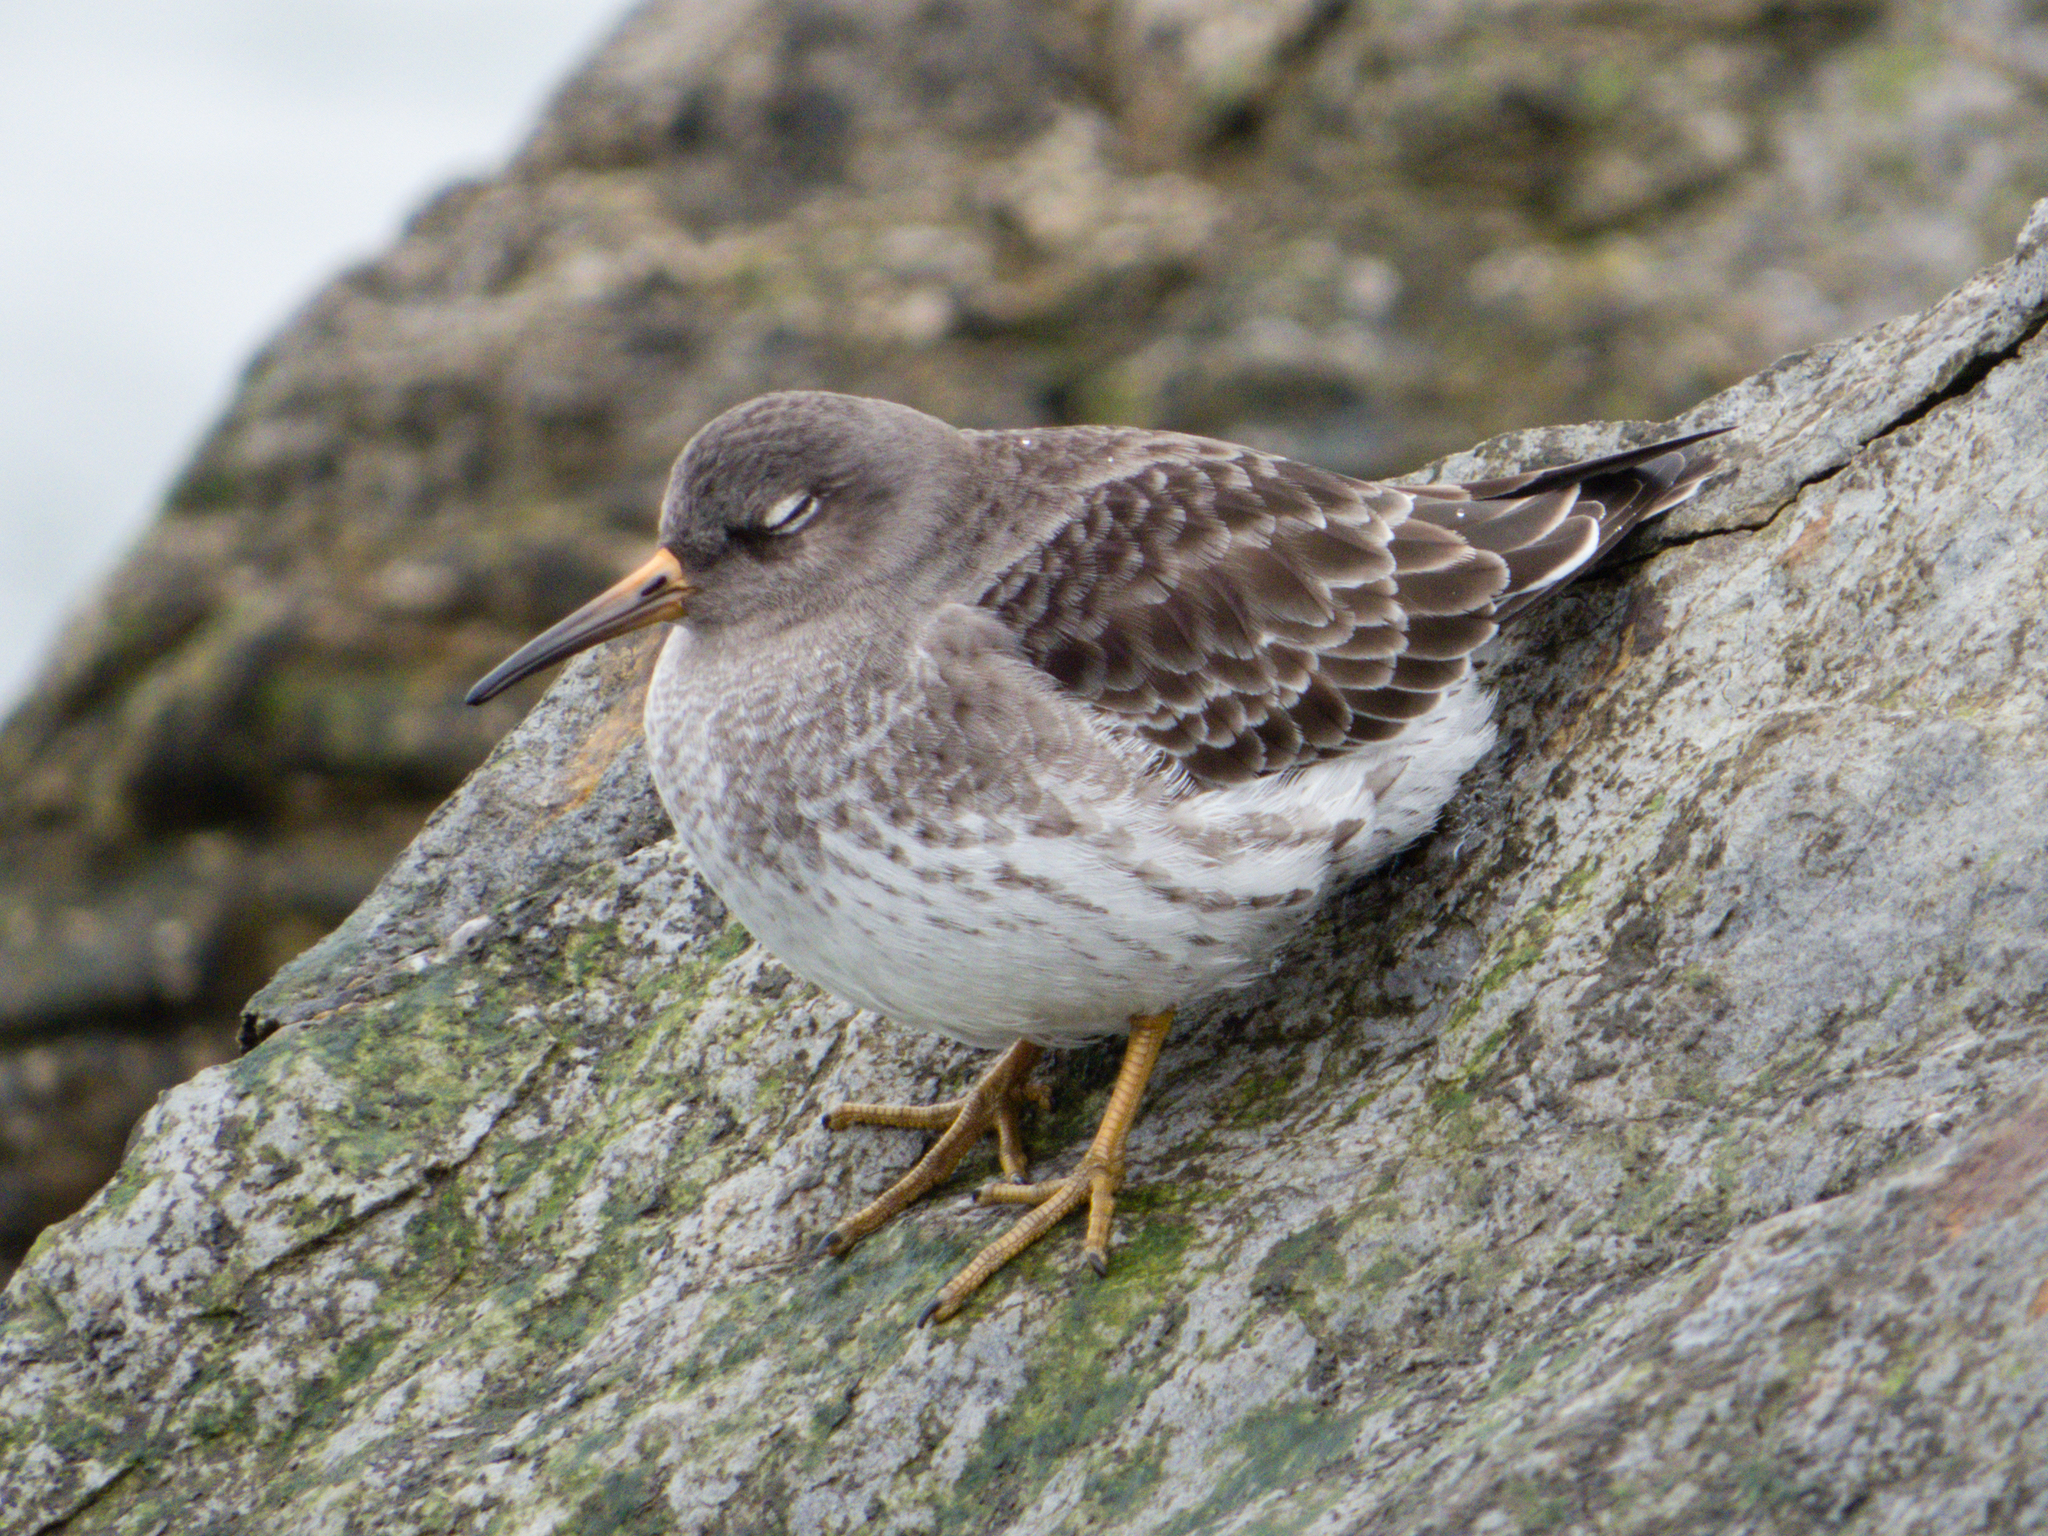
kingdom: Animalia
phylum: Chordata
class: Aves
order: Charadriiformes
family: Scolopacidae
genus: Calidris
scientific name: Calidris maritima
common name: Purple sandpiper
